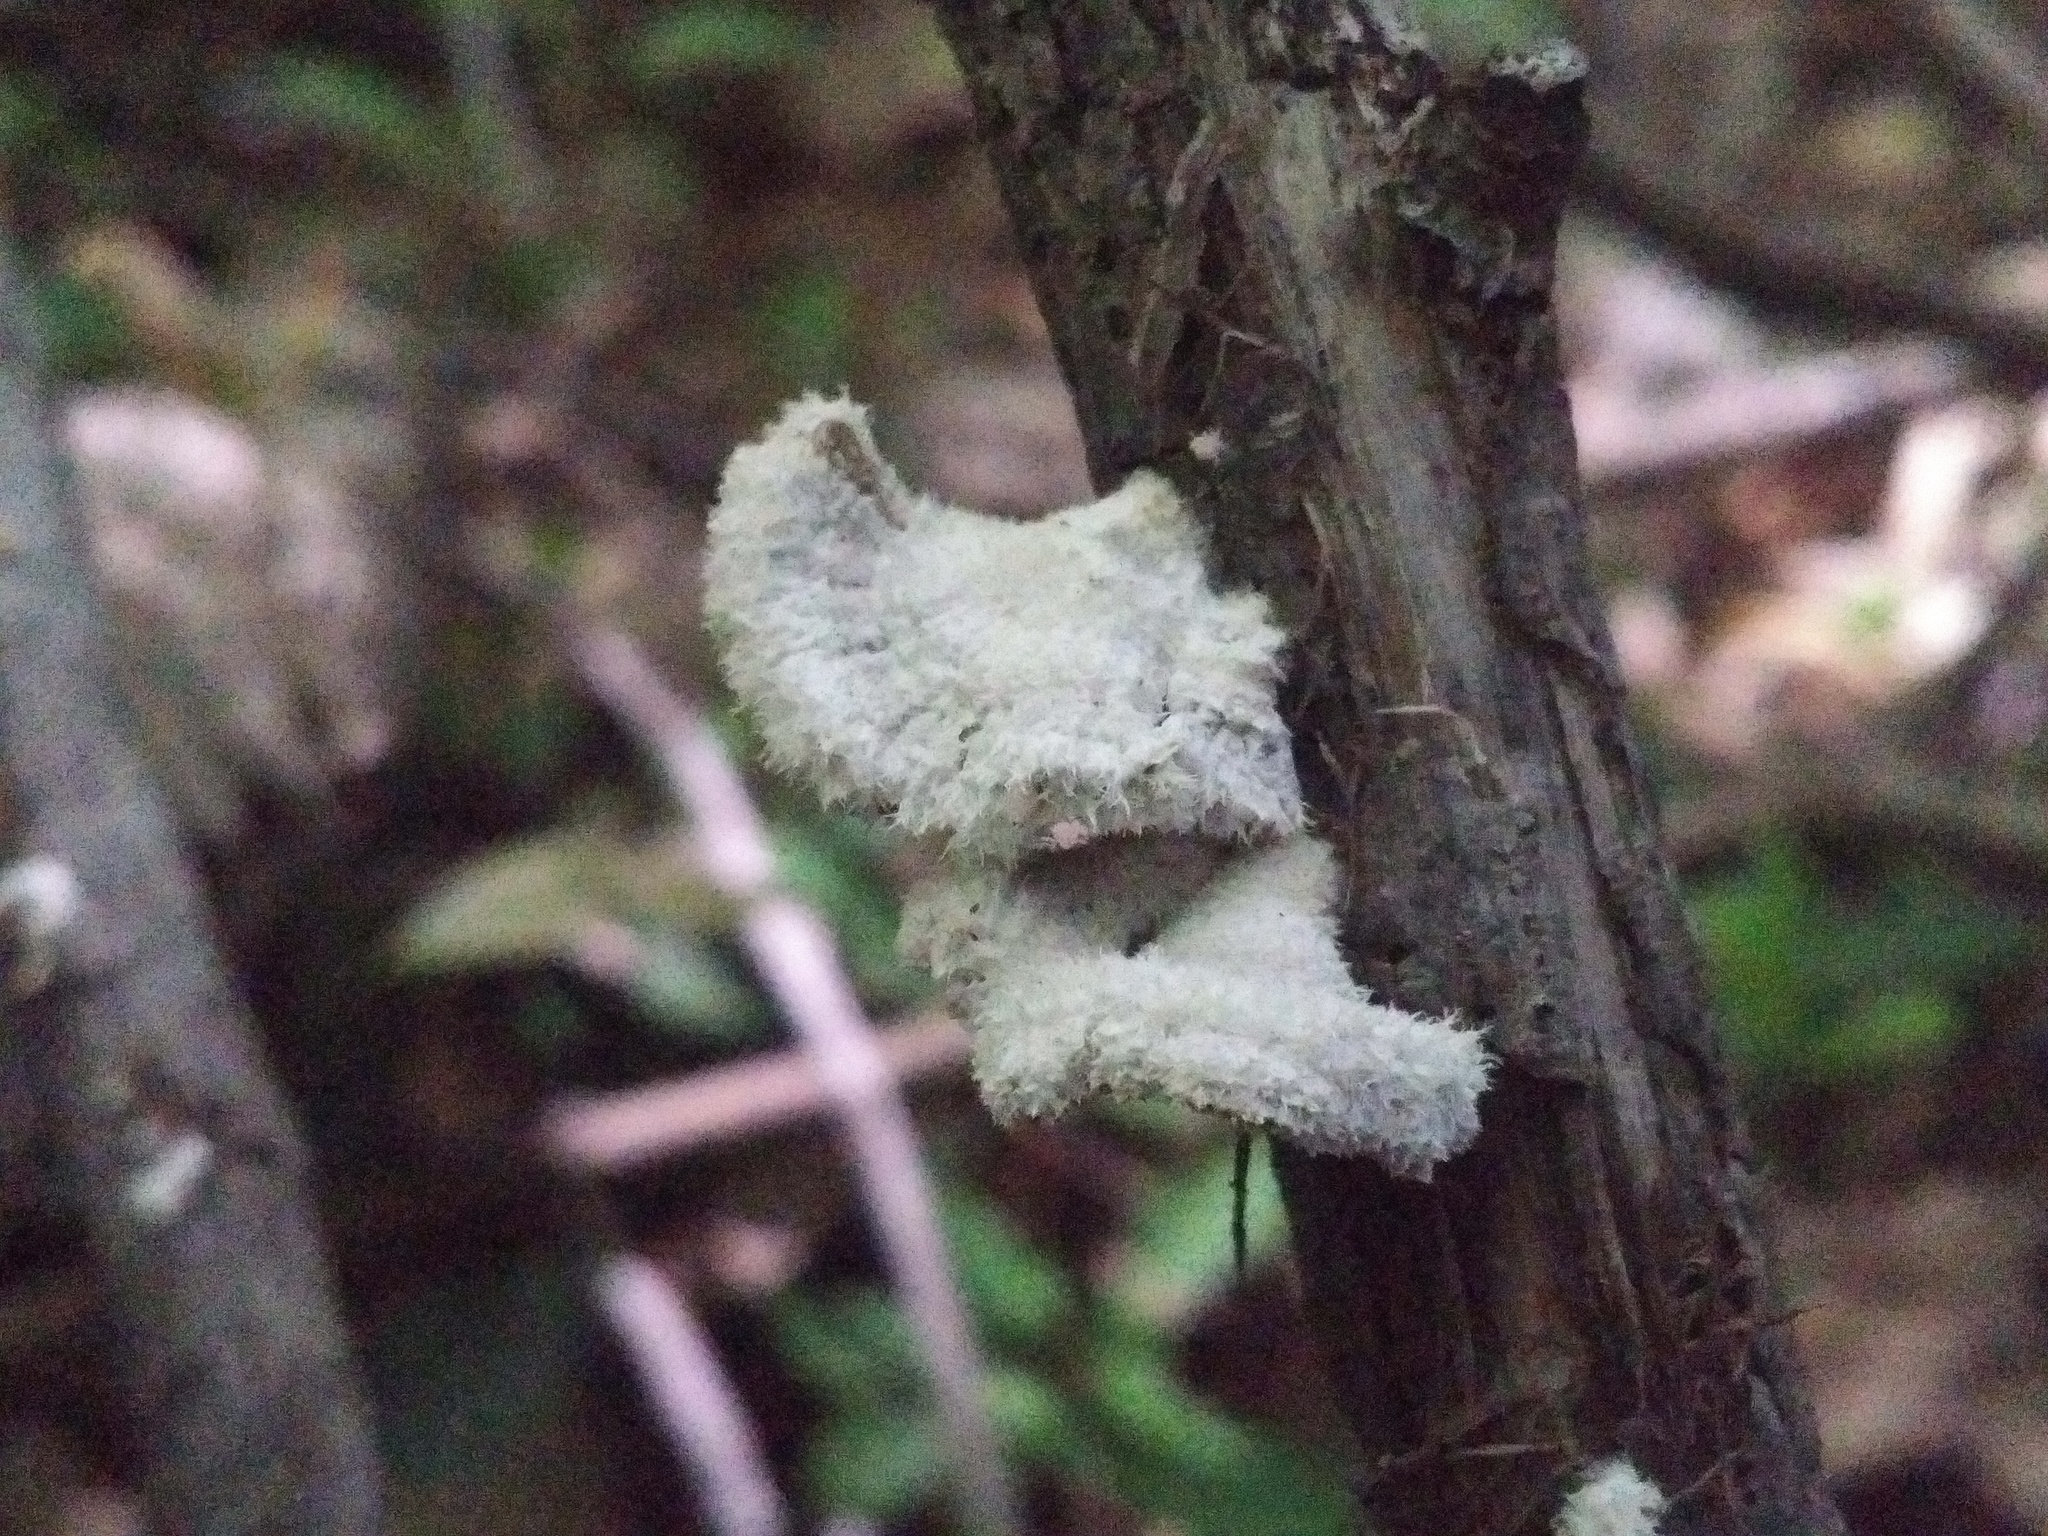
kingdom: Fungi
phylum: Basidiomycota
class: Agaricomycetes
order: Agaricales
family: Schizophyllaceae
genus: Schizophyllum
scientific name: Schizophyllum commune
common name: Common porecrust
